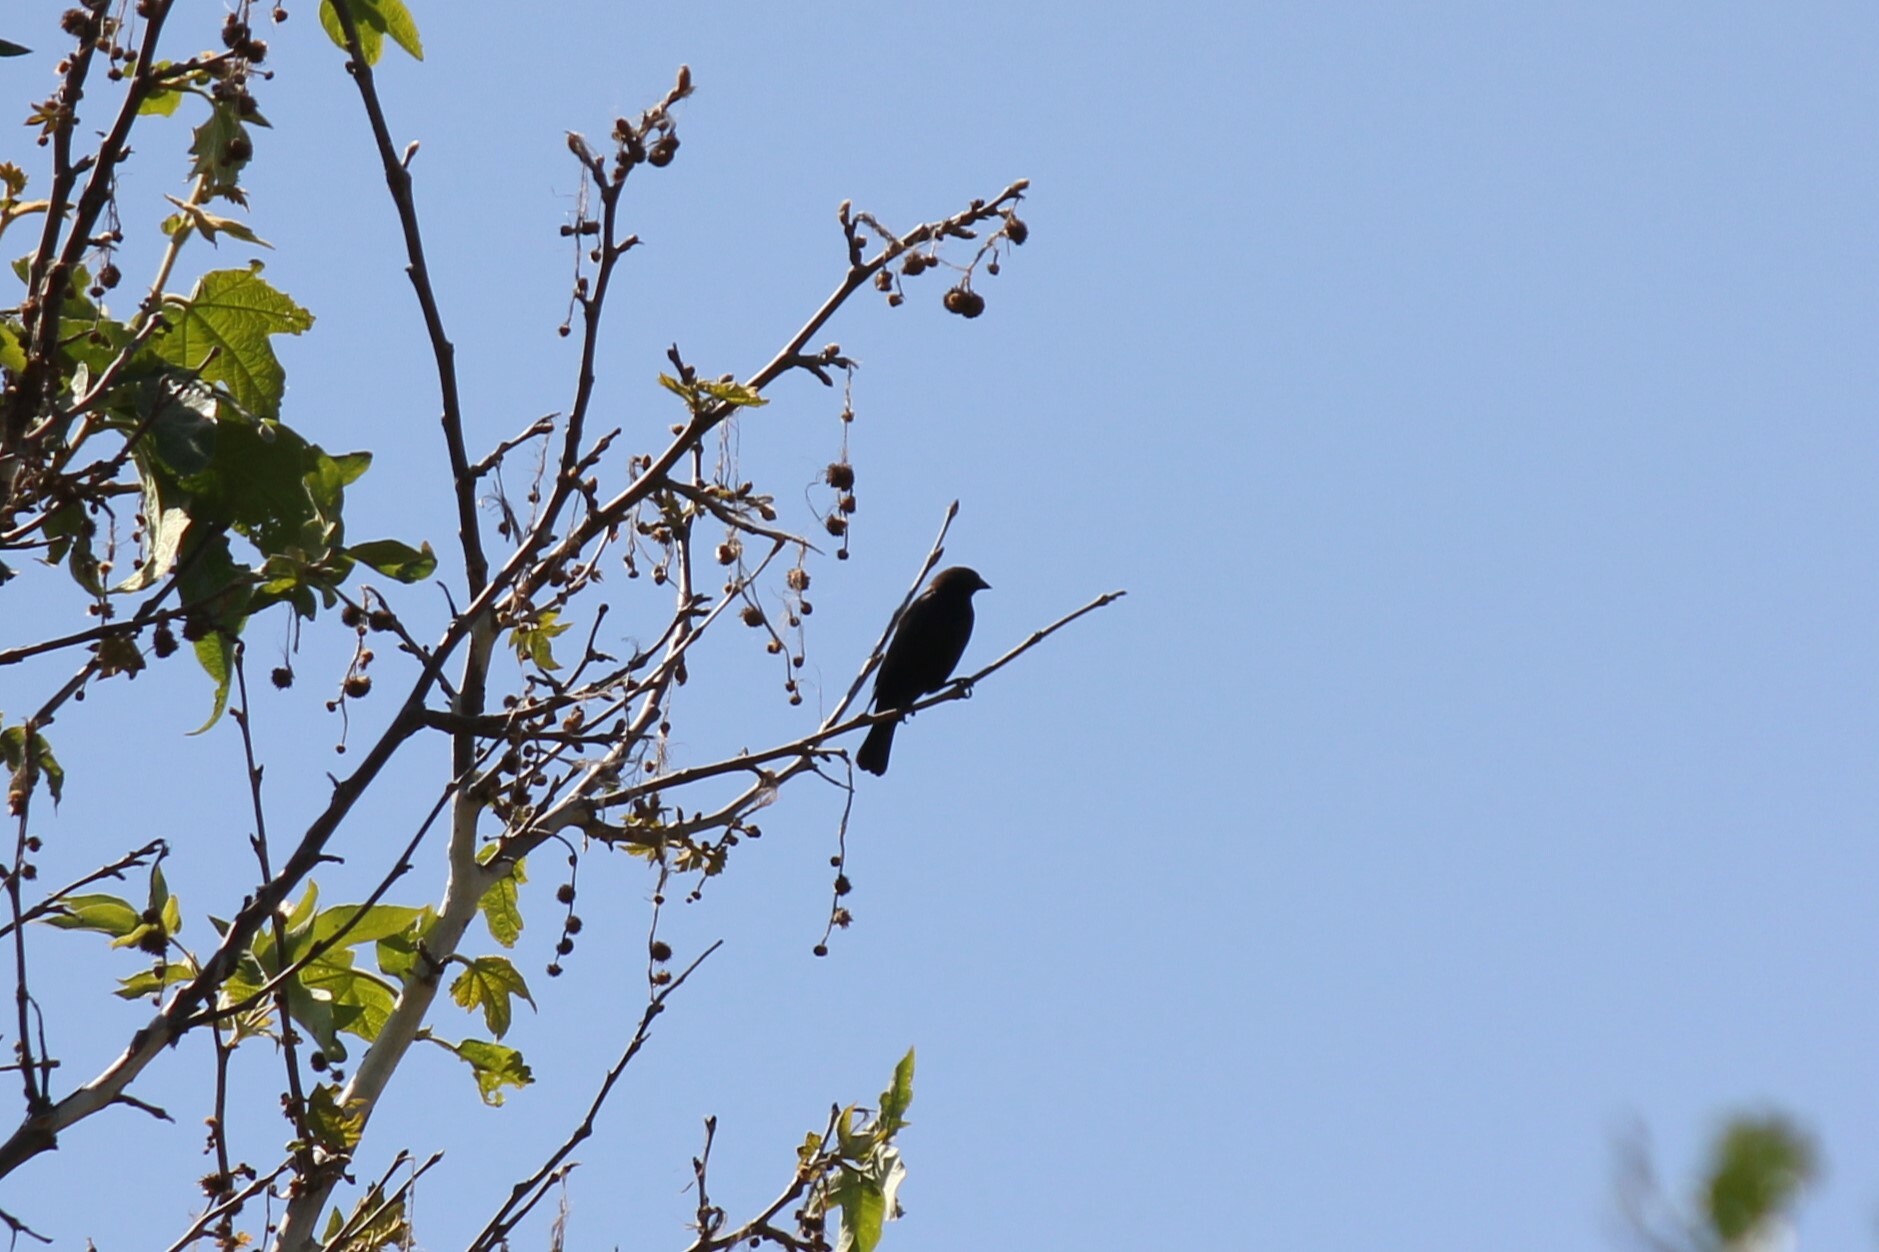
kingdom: Animalia
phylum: Chordata
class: Aves
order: Passeriformes
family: Icteridae
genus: Molothrus
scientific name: Molothrus ater
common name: Brown-headed cowbird
